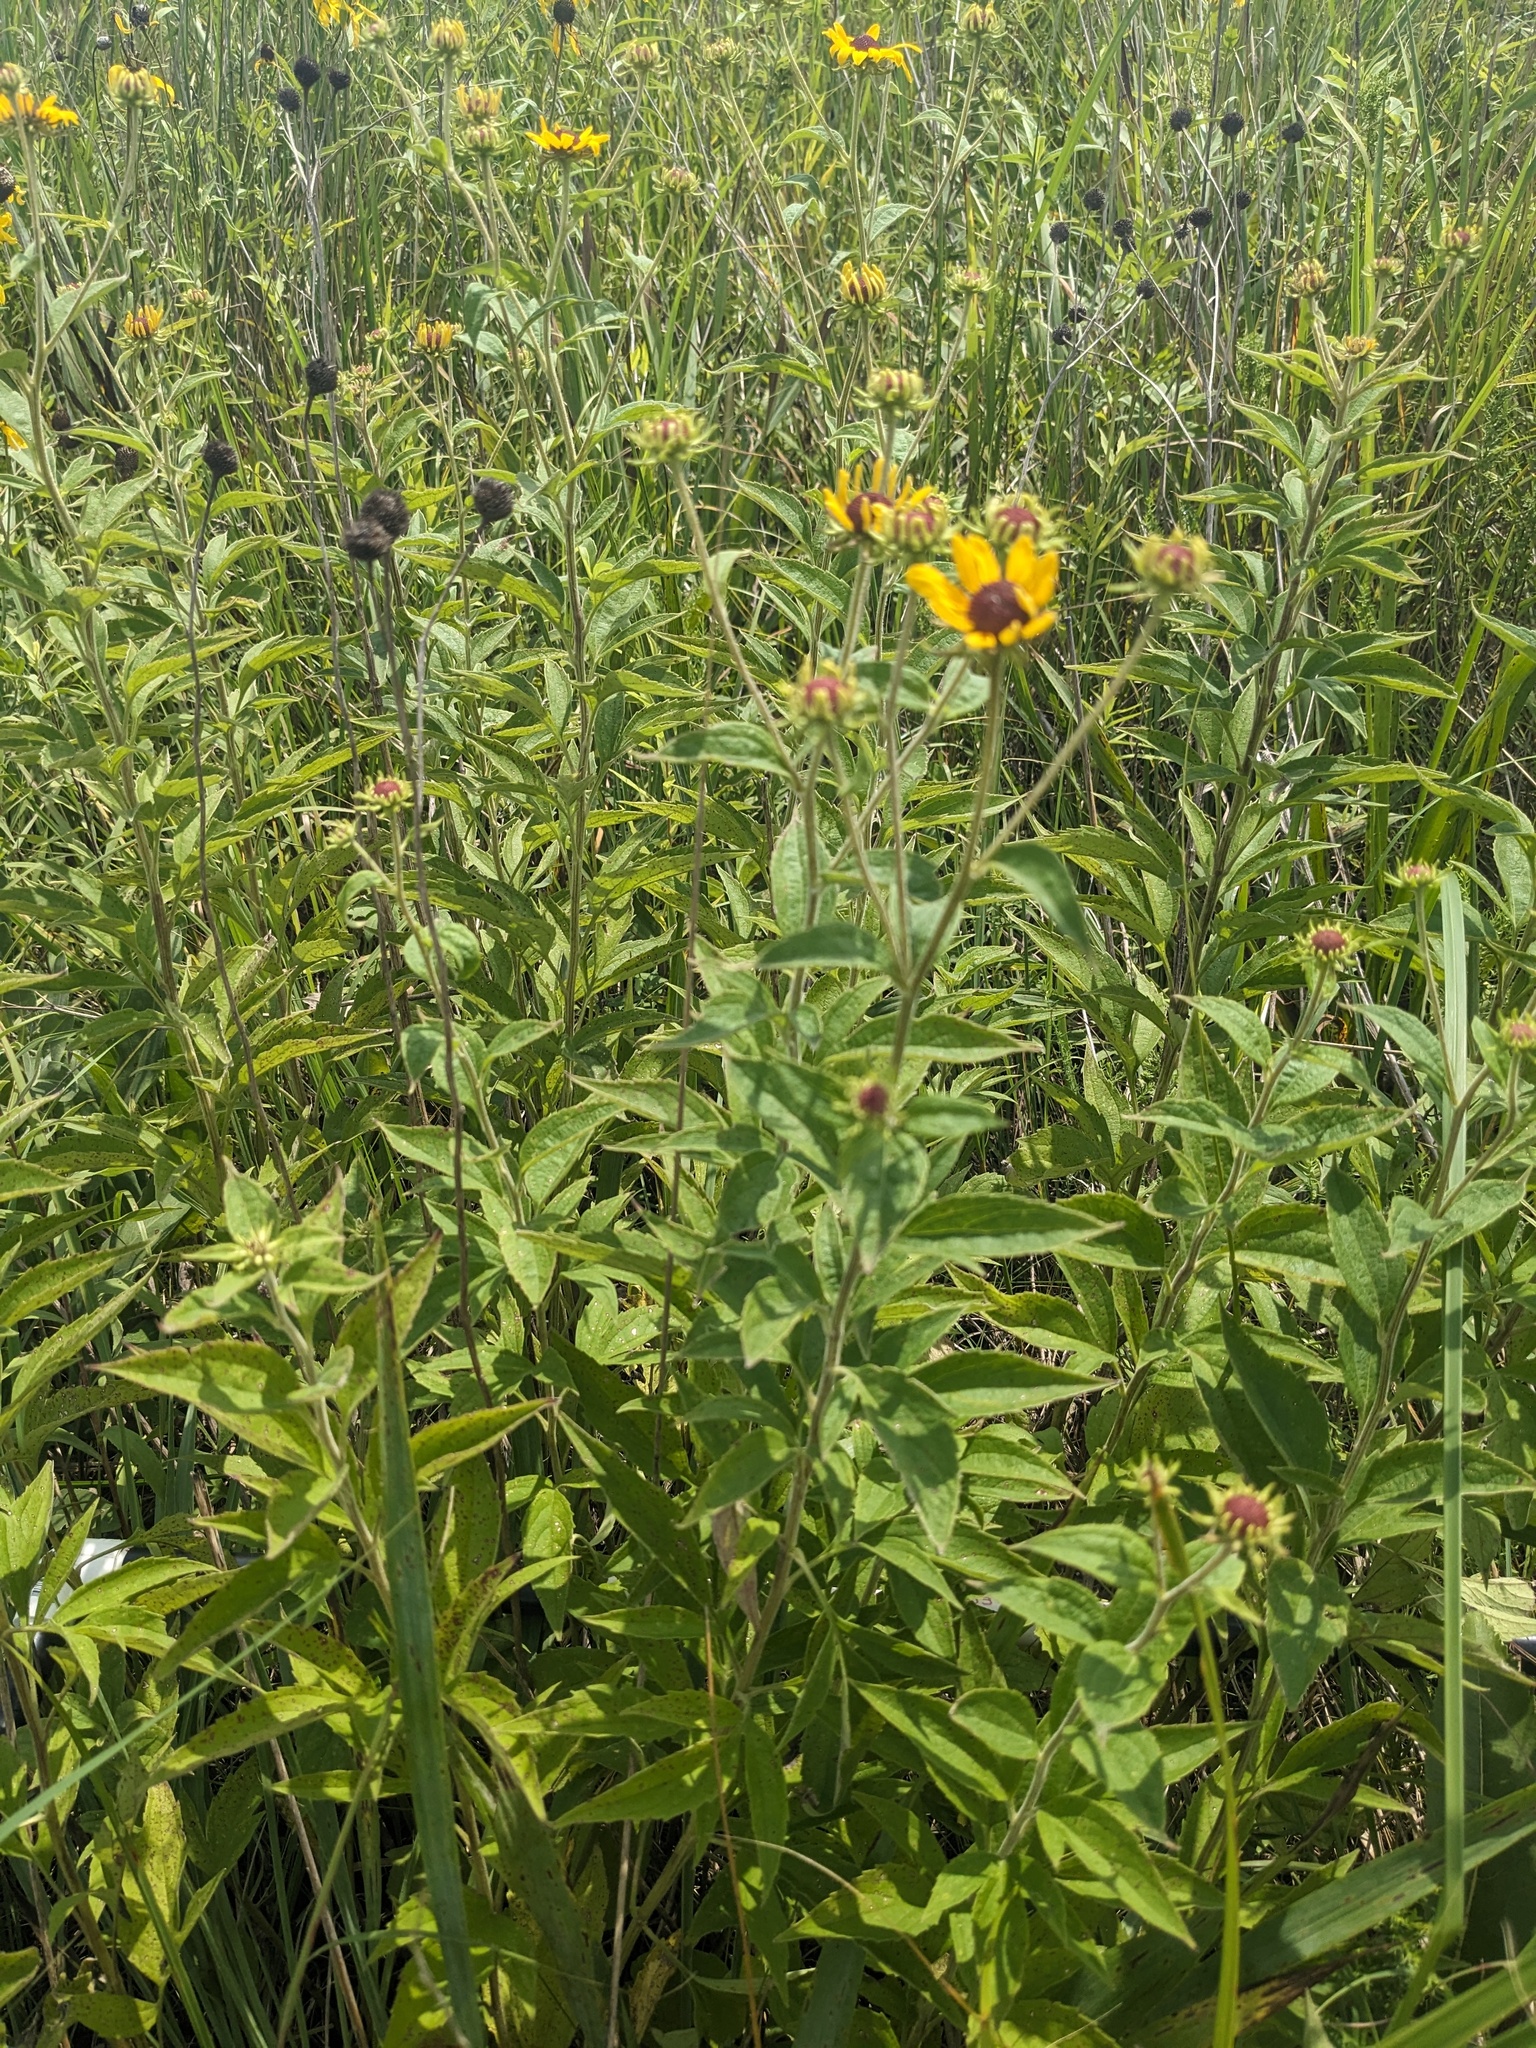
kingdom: Plantae
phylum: Tracheophyta
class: Magnoliopsida
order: Asterales
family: Asteraceae
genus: Rudbeckia
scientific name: Rudbeckia subtomentosa
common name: Sweet coneflower
